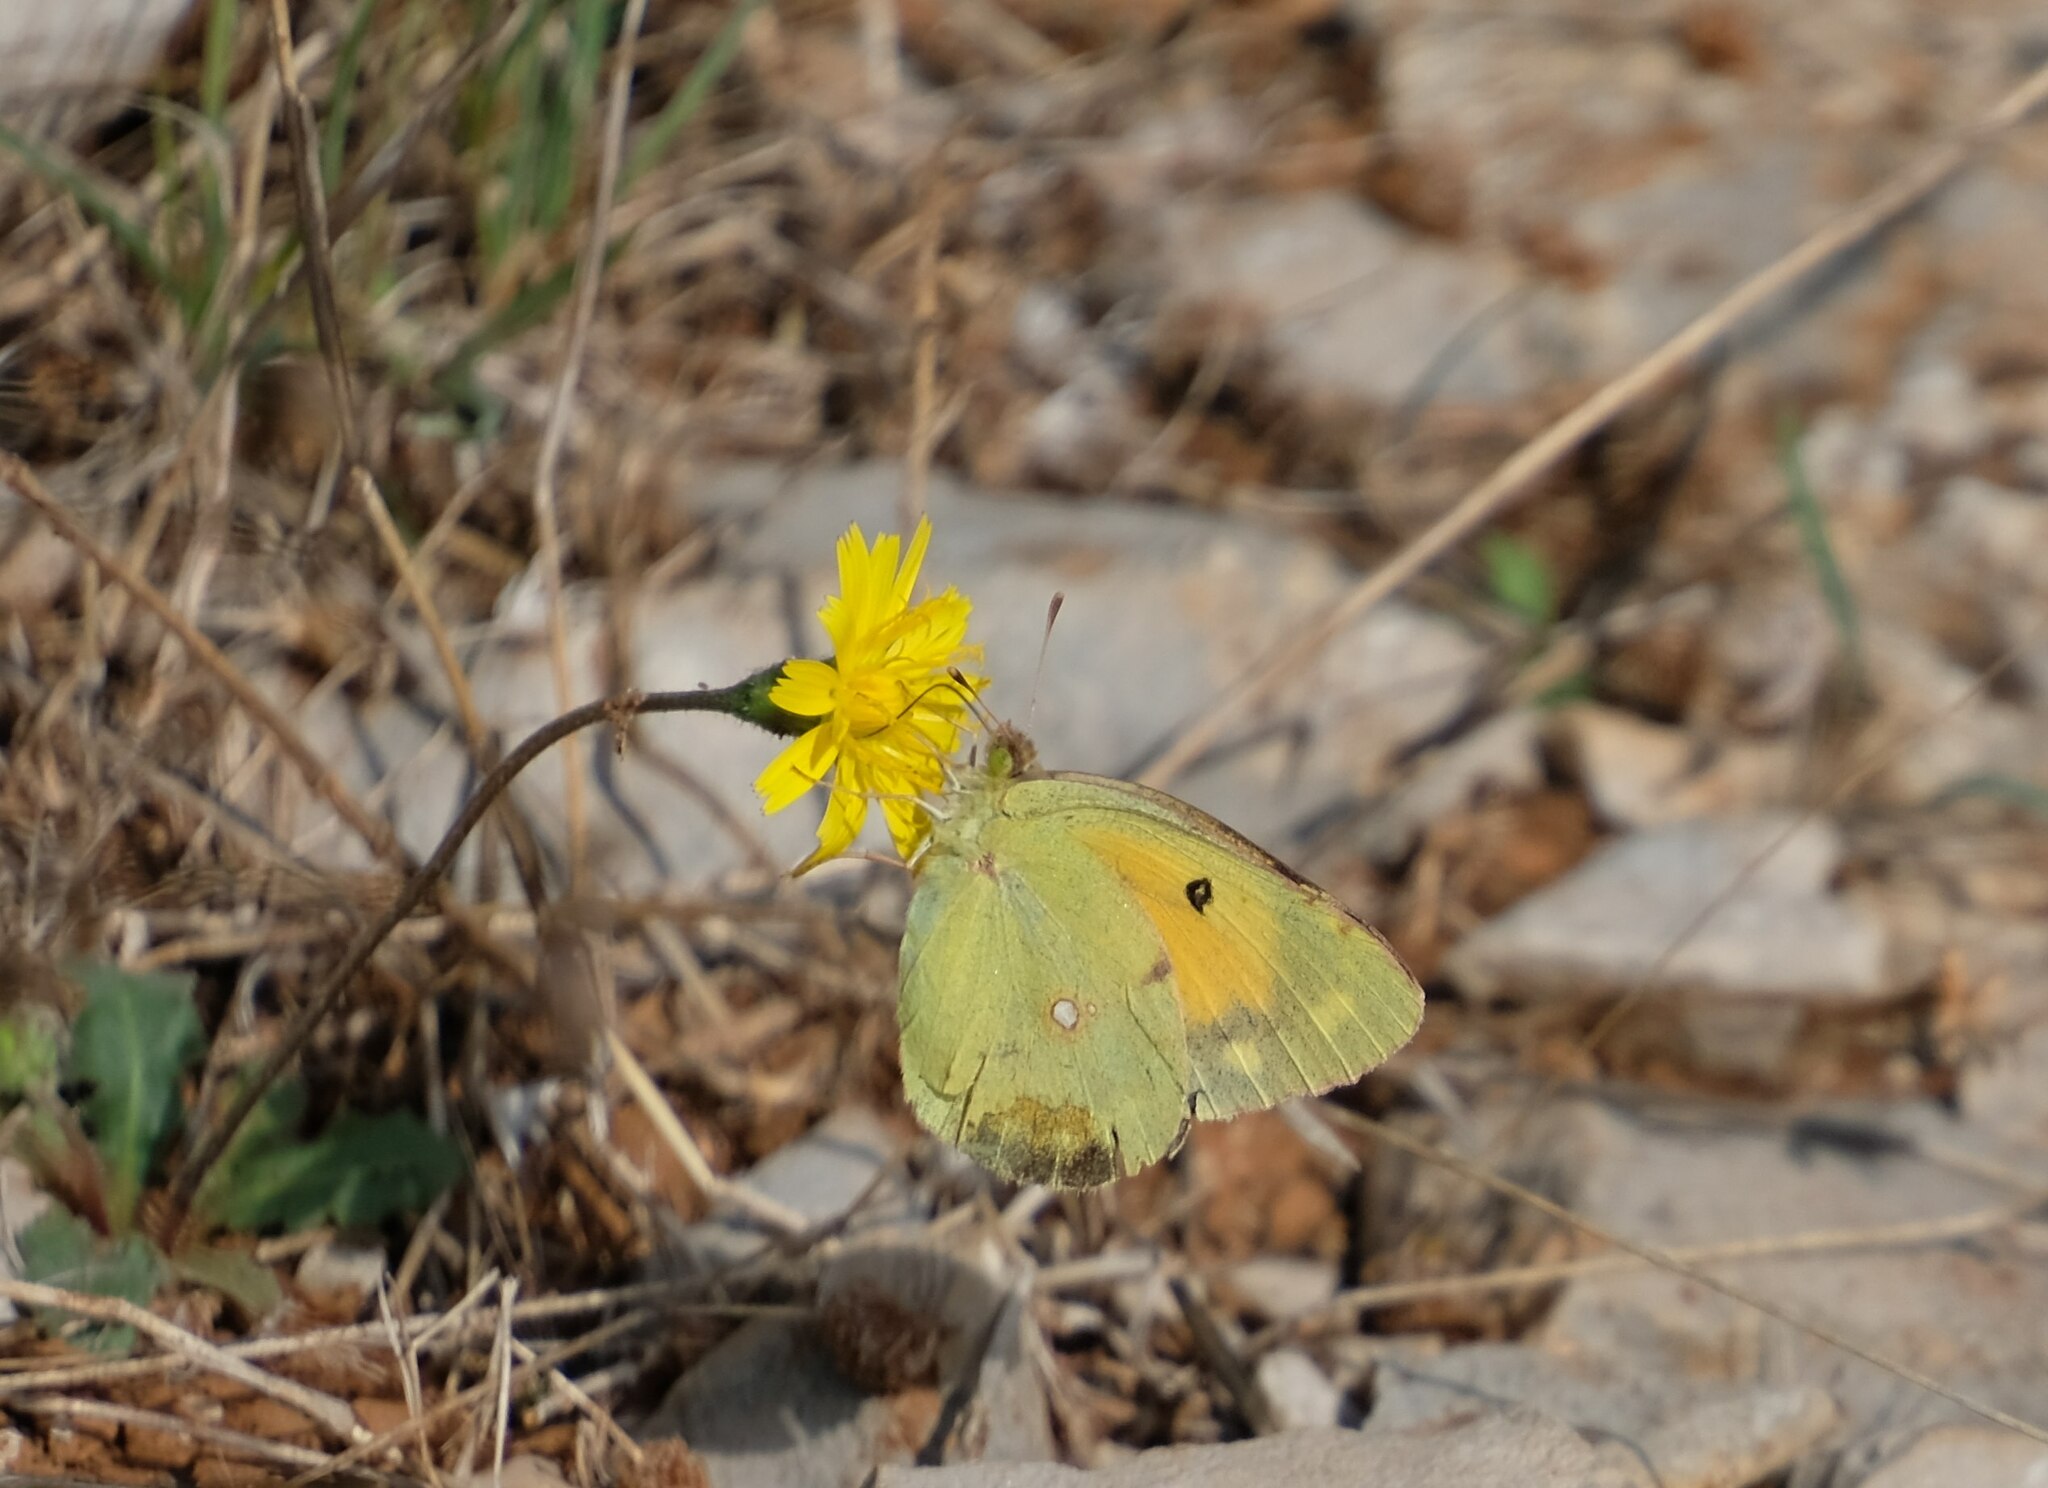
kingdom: Animalia
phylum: Arthropoda
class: Insecta
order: Lepidoptera
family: Pieridae
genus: Colias
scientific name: Colias croceus
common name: Clouded yellow
